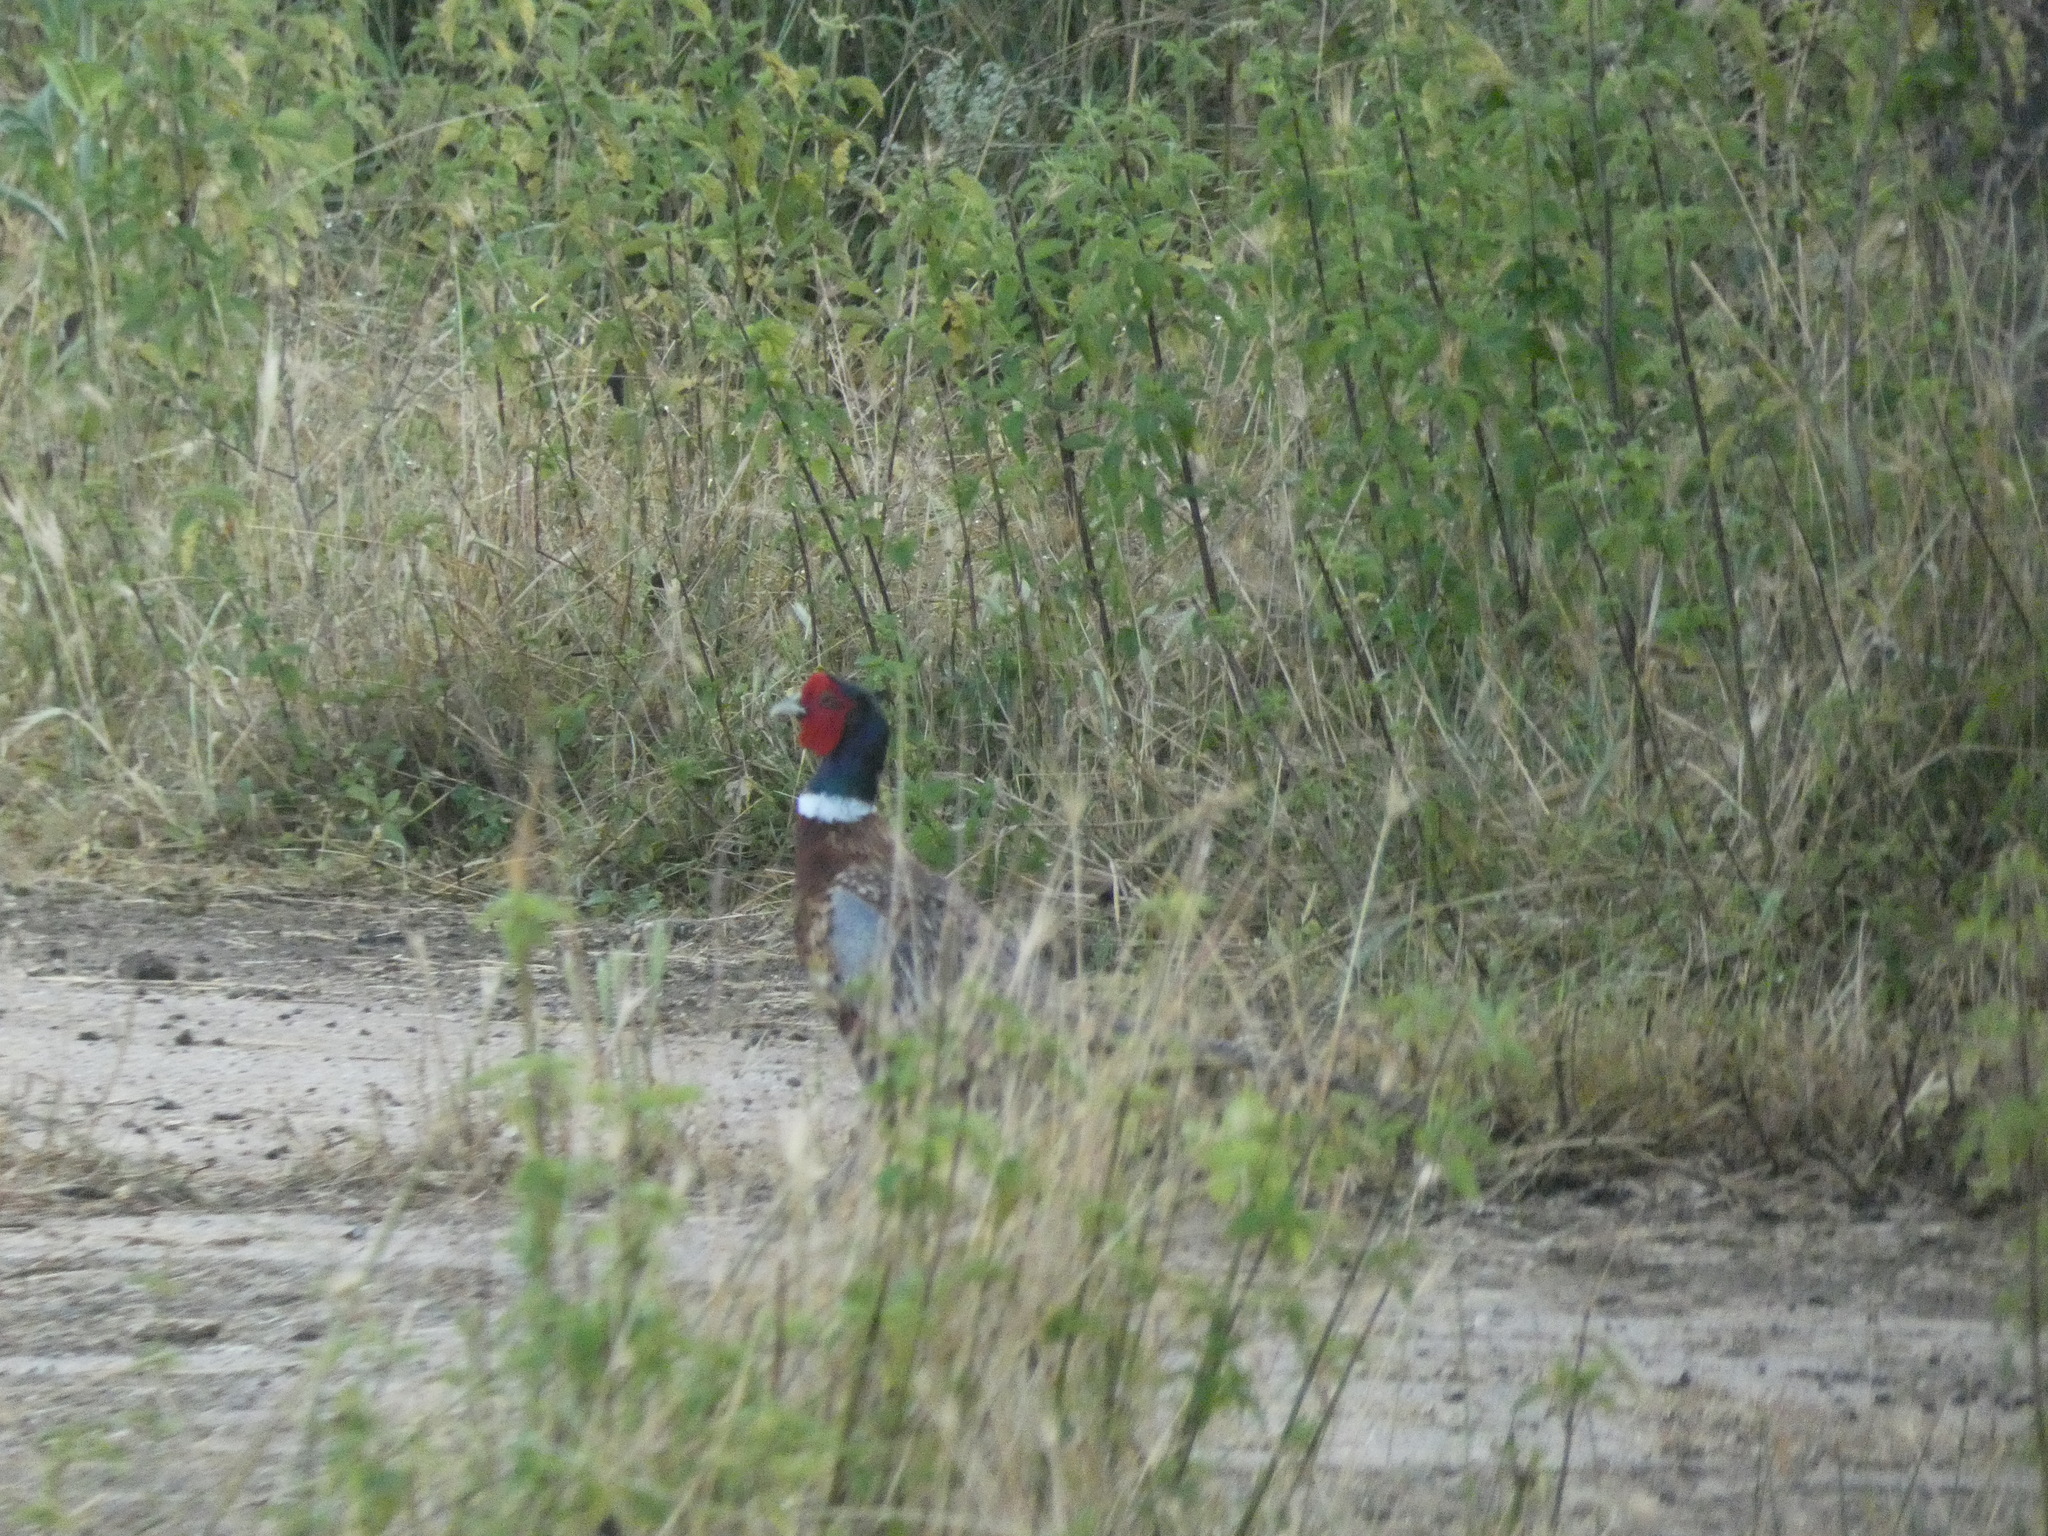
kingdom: Animalia
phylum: Chordata
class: Aves
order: Galliformes
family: Phasianidae
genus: Phasianus
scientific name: Phasianus colchicus
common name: Common pheasant
